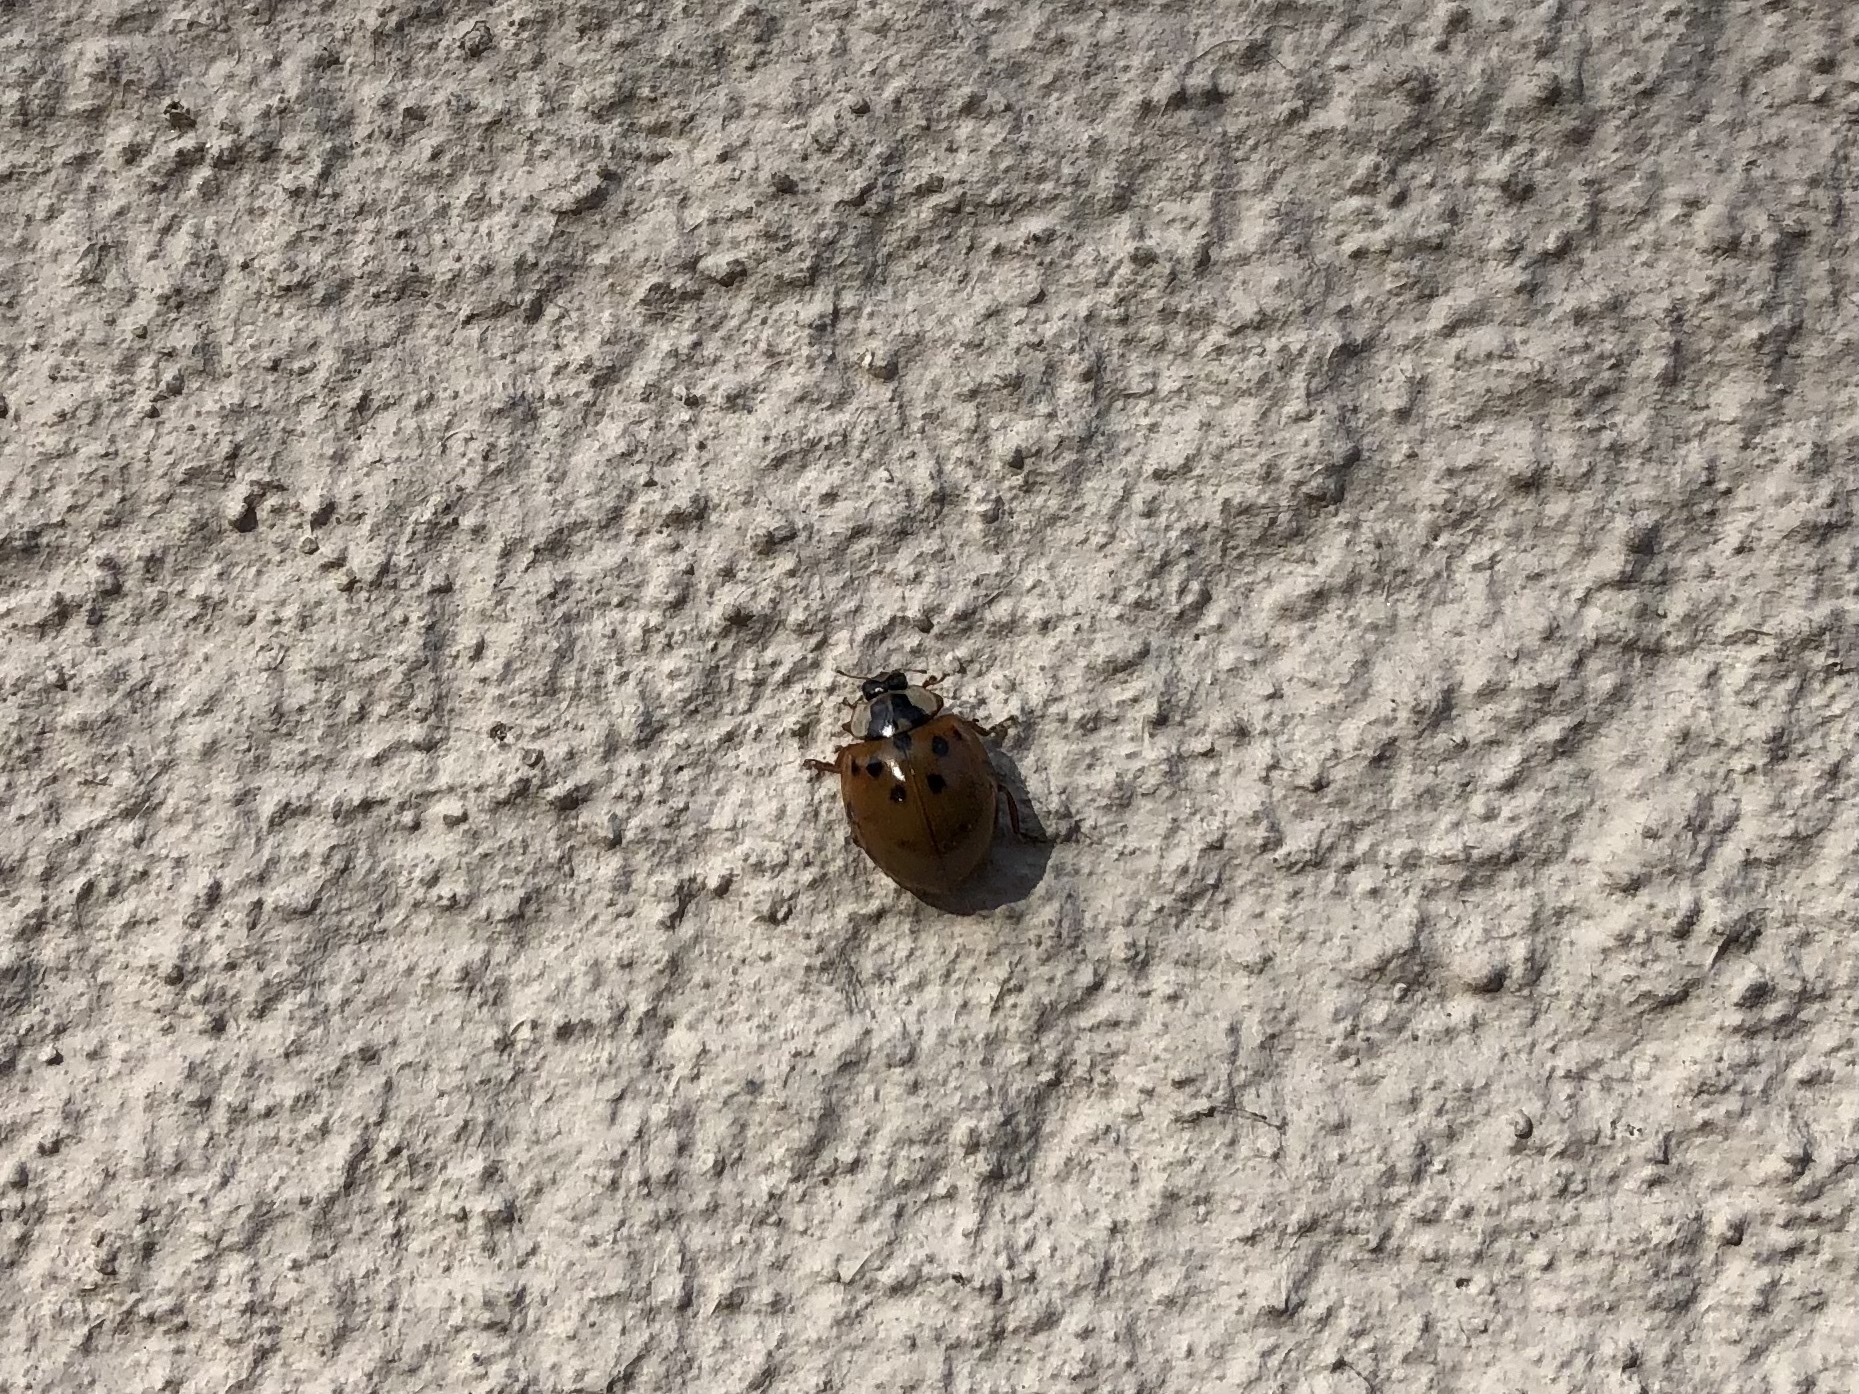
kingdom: Animalia
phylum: Arthropoda
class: Insecta
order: Coleoptera
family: Coccinellidae
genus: Harmonia
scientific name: Harmonia axyridis
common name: Harlequin ladybird
